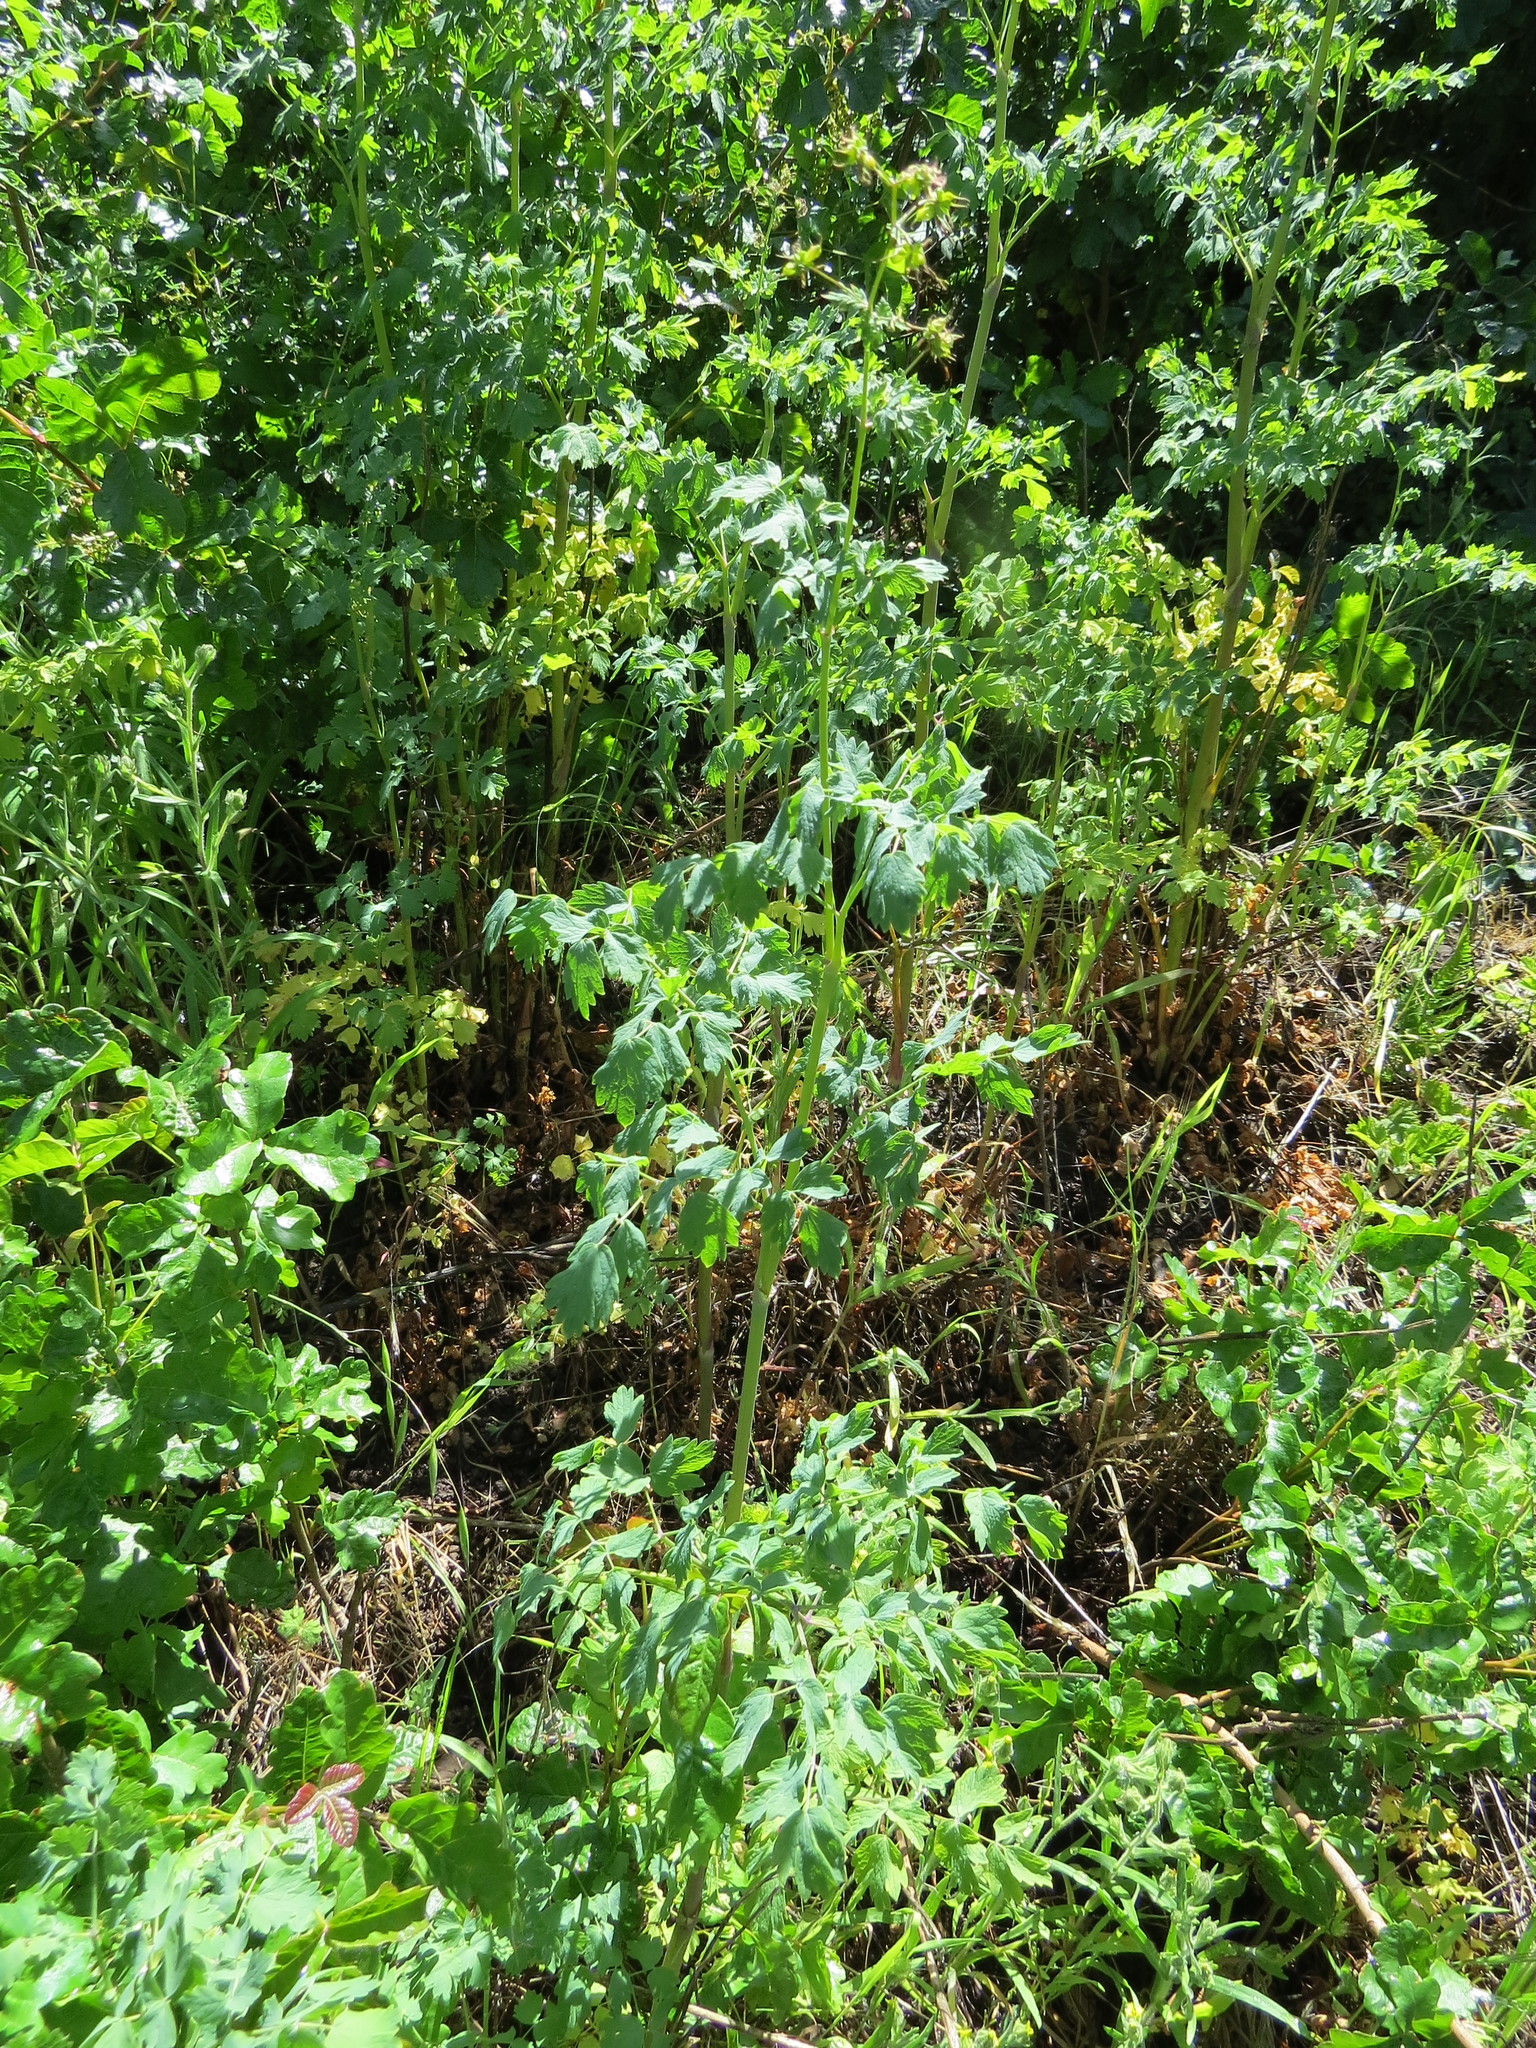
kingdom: Plantae
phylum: Tracheophyta
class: Magnoliopsida
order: Ranunculales
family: Ranunculaceae
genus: Thalictrum
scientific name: Thalictrum fendleri
